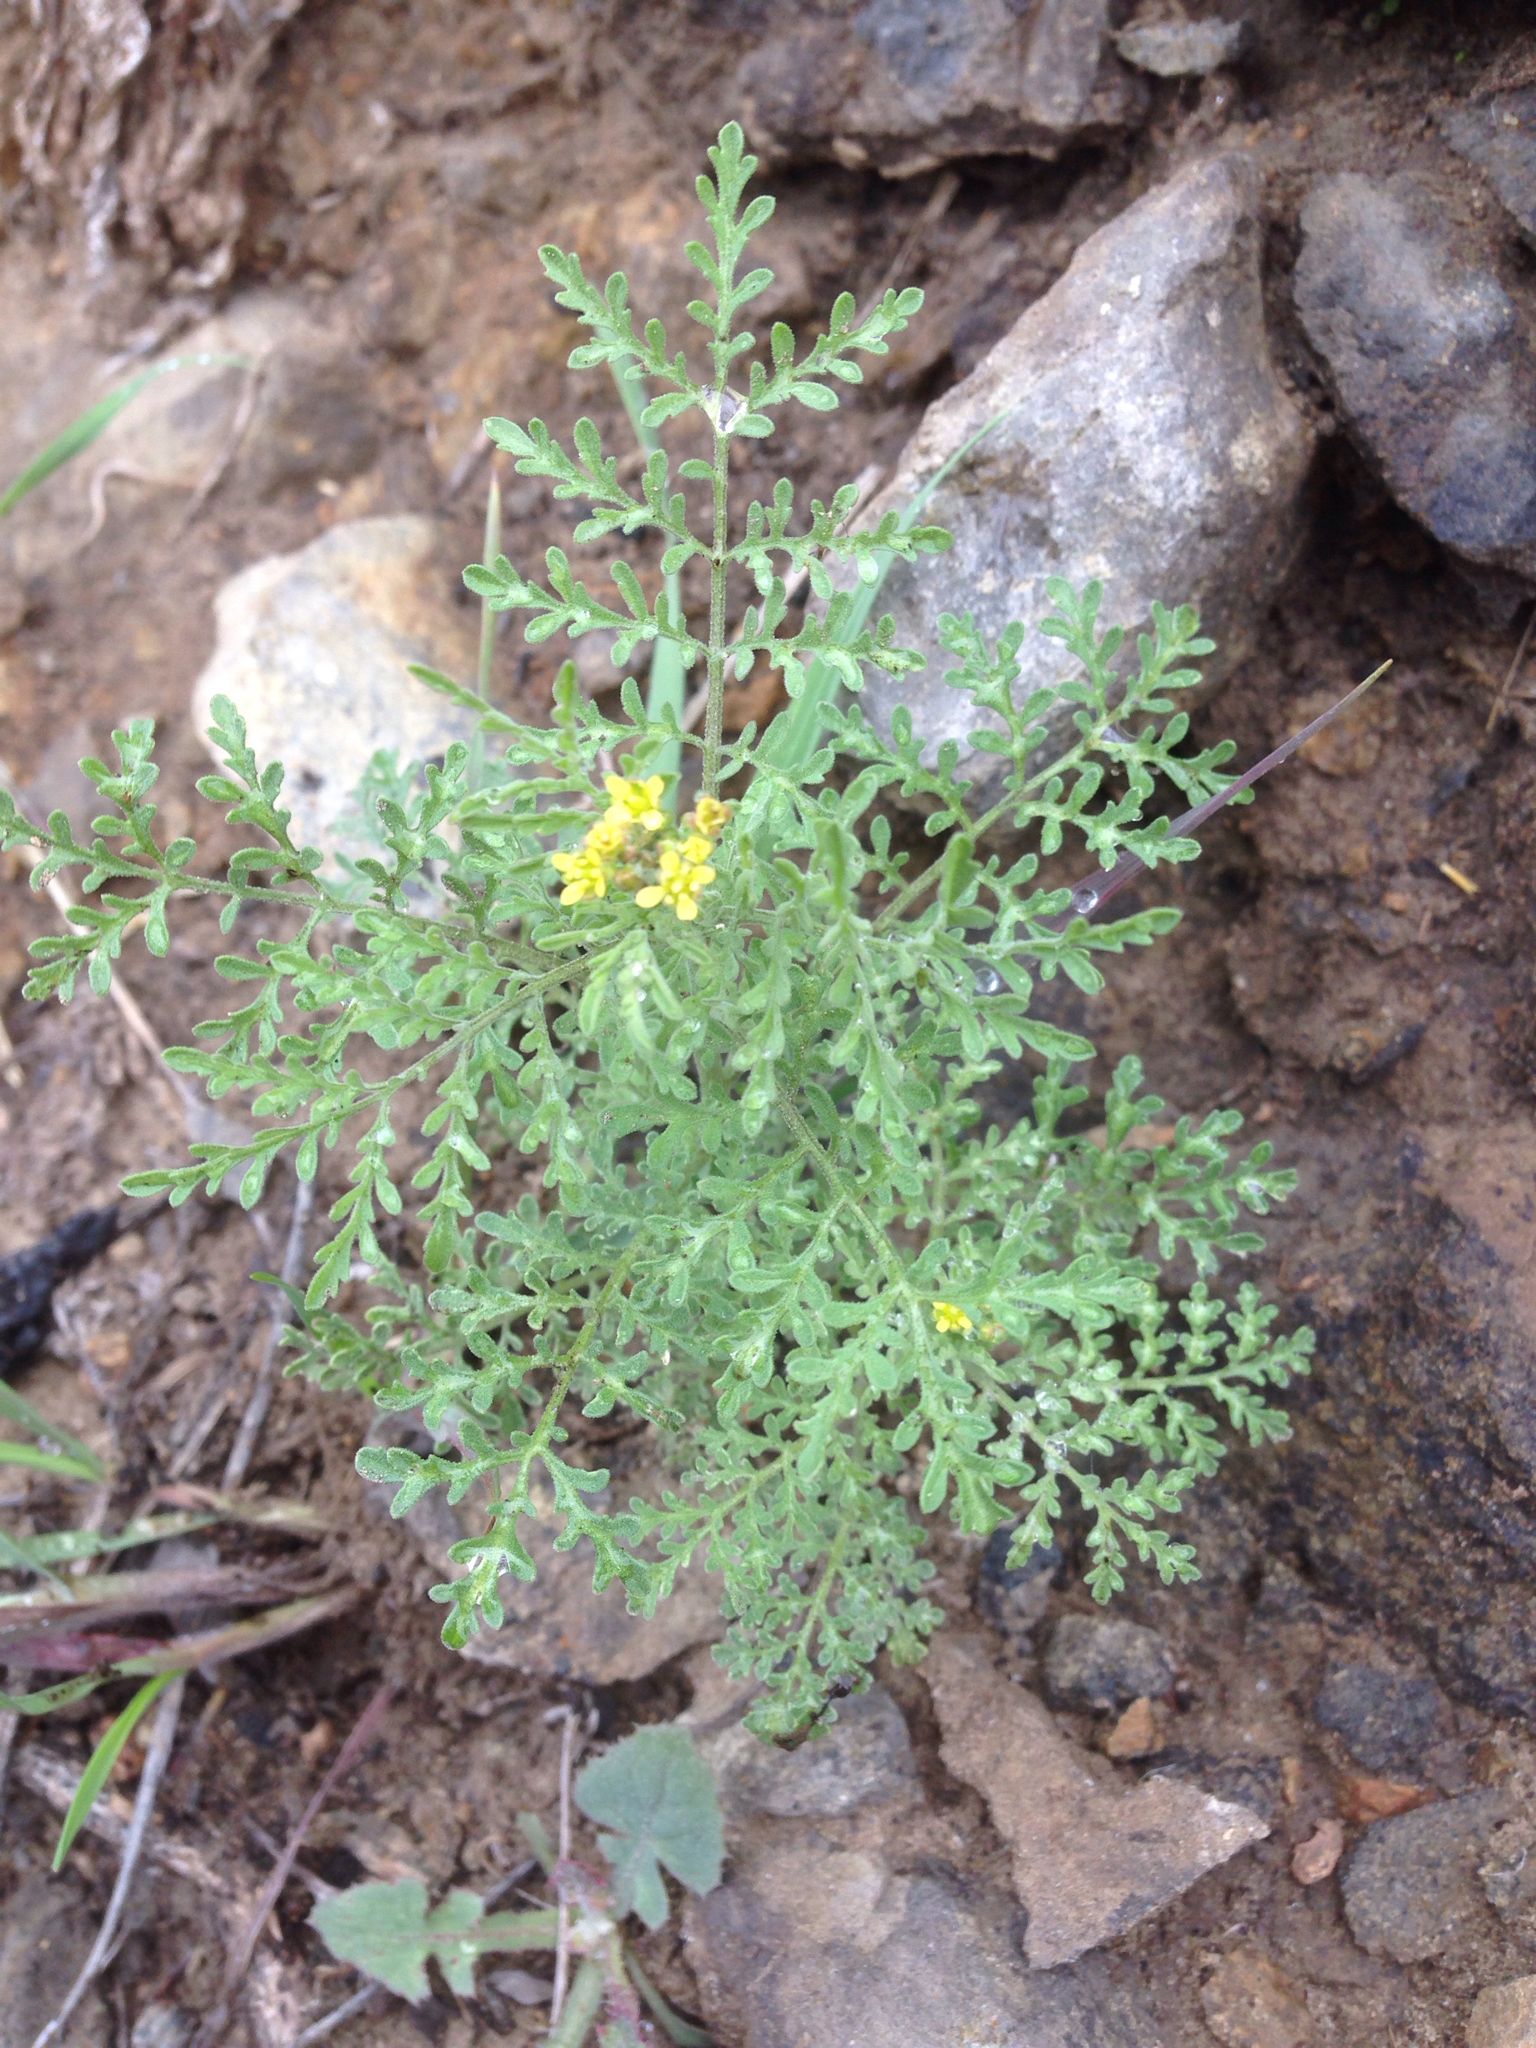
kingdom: Plantae
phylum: Tracheophyta
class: Magnoliopsida
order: Brassicales
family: Brassicaceae
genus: Descurainia
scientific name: Descurainia pinnata
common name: Western tansy mustard
